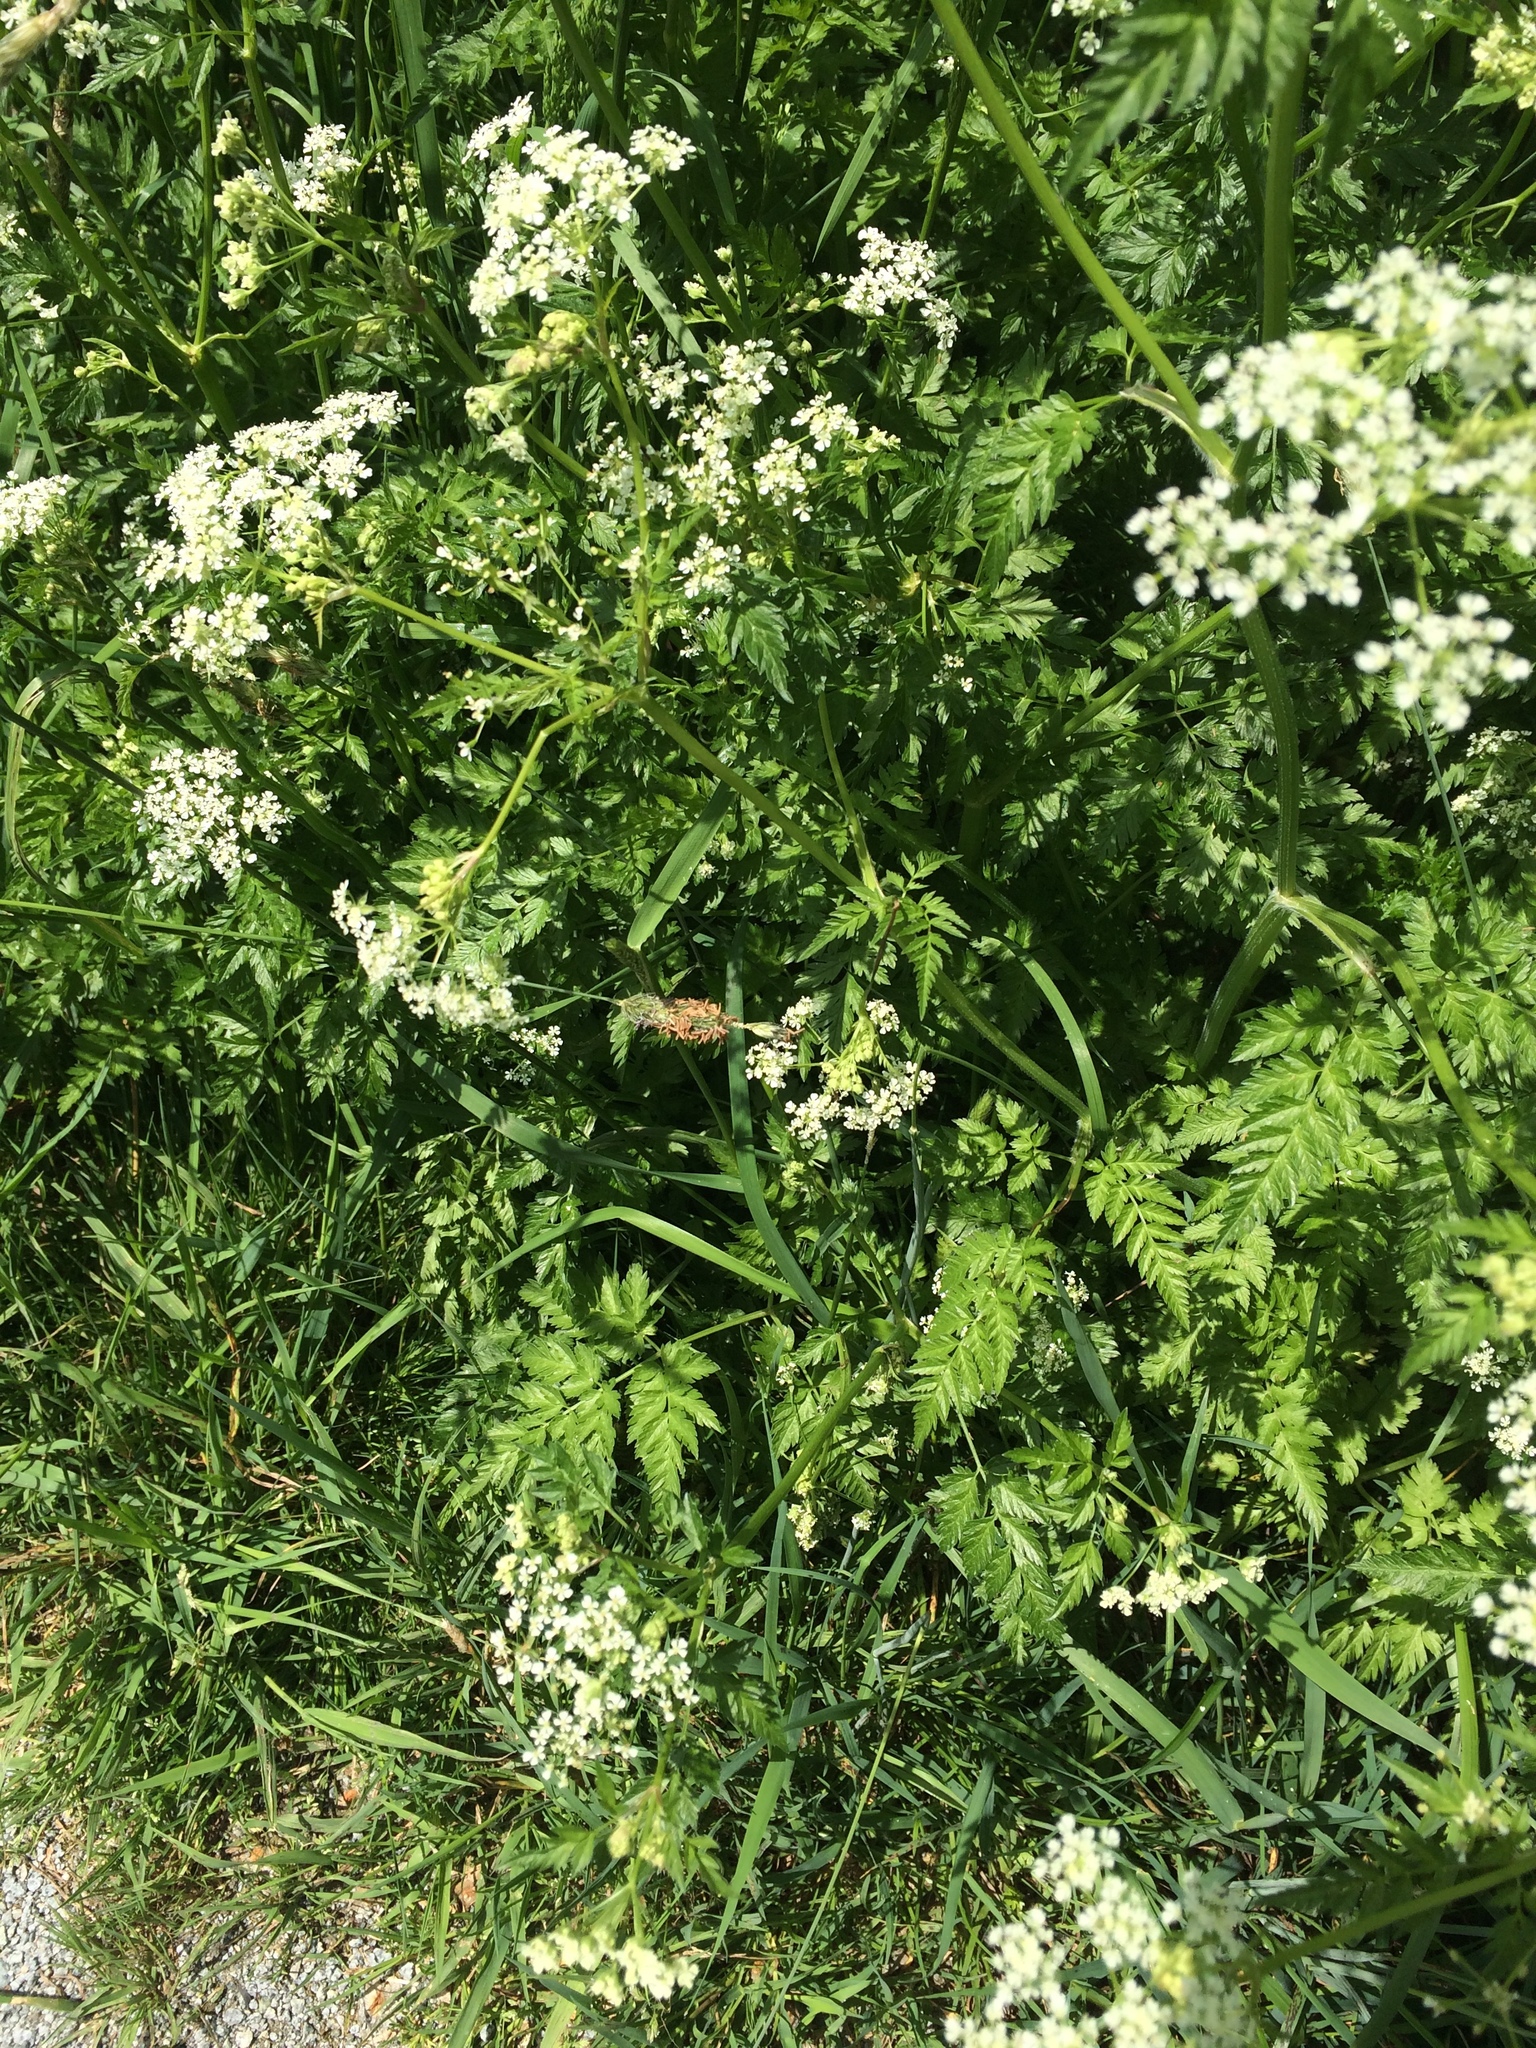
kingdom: Plantae
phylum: Tracheophyta
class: Magnoliopsida
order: Apiales
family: Apiaceae
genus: Anthriscus
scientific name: Anthriscus sylvestris
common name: Cow parsley
